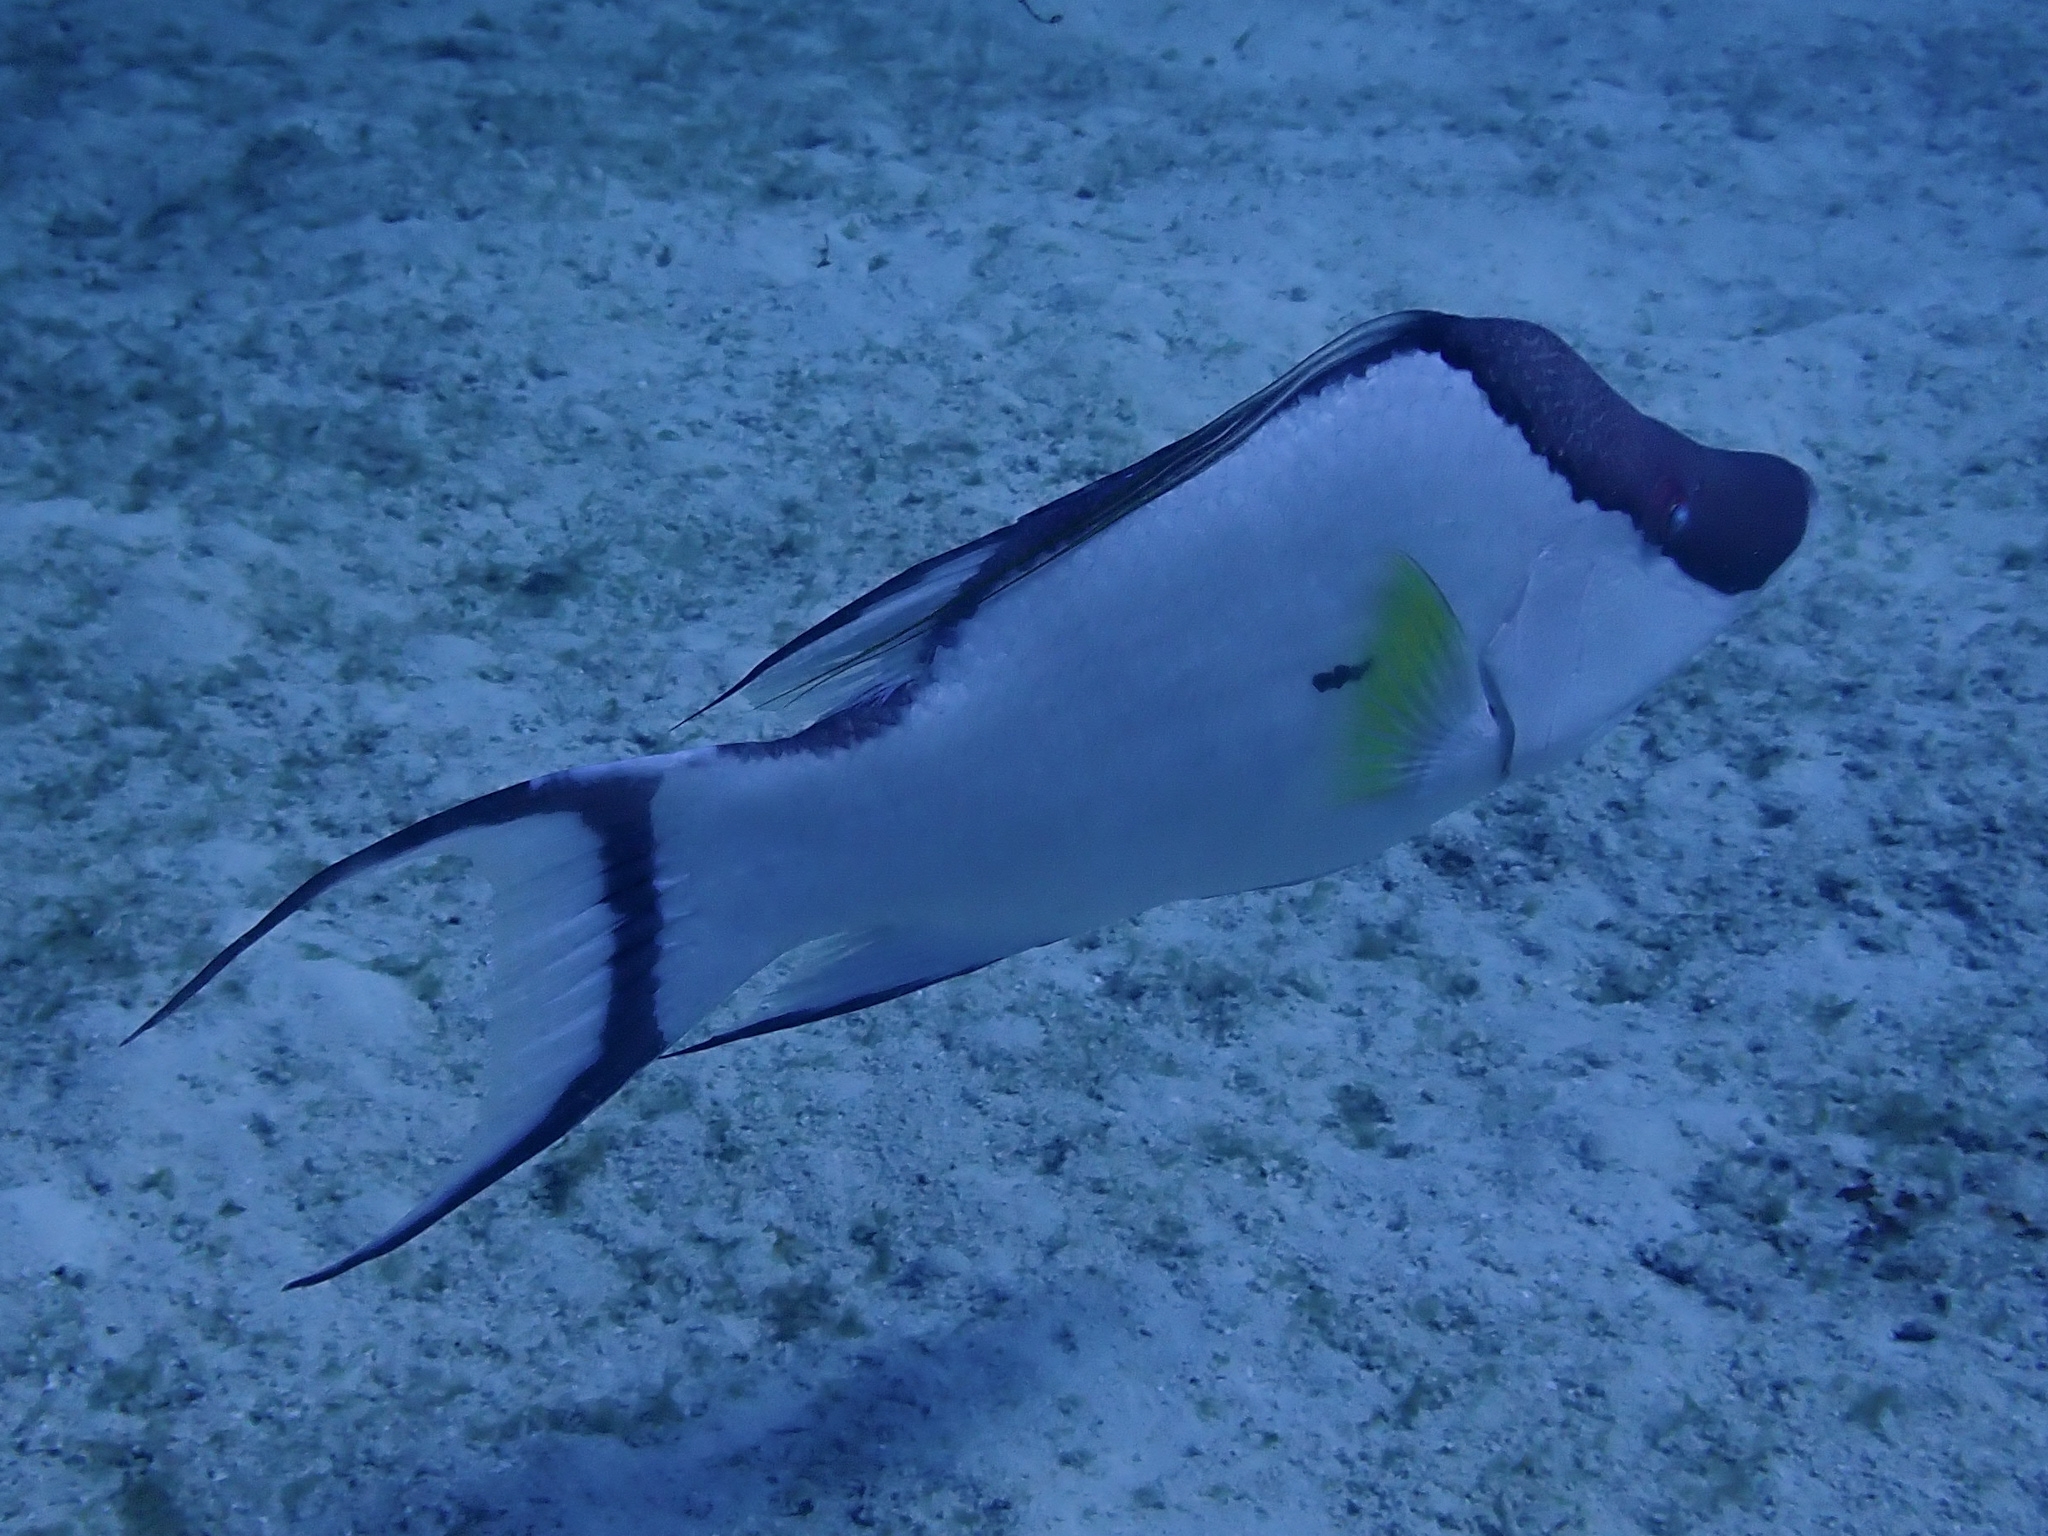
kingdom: Animalia
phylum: Chordata
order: Perciformes
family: Labridae
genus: Lachnolaimus
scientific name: Lachnolaimus maximus
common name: Hogfish
